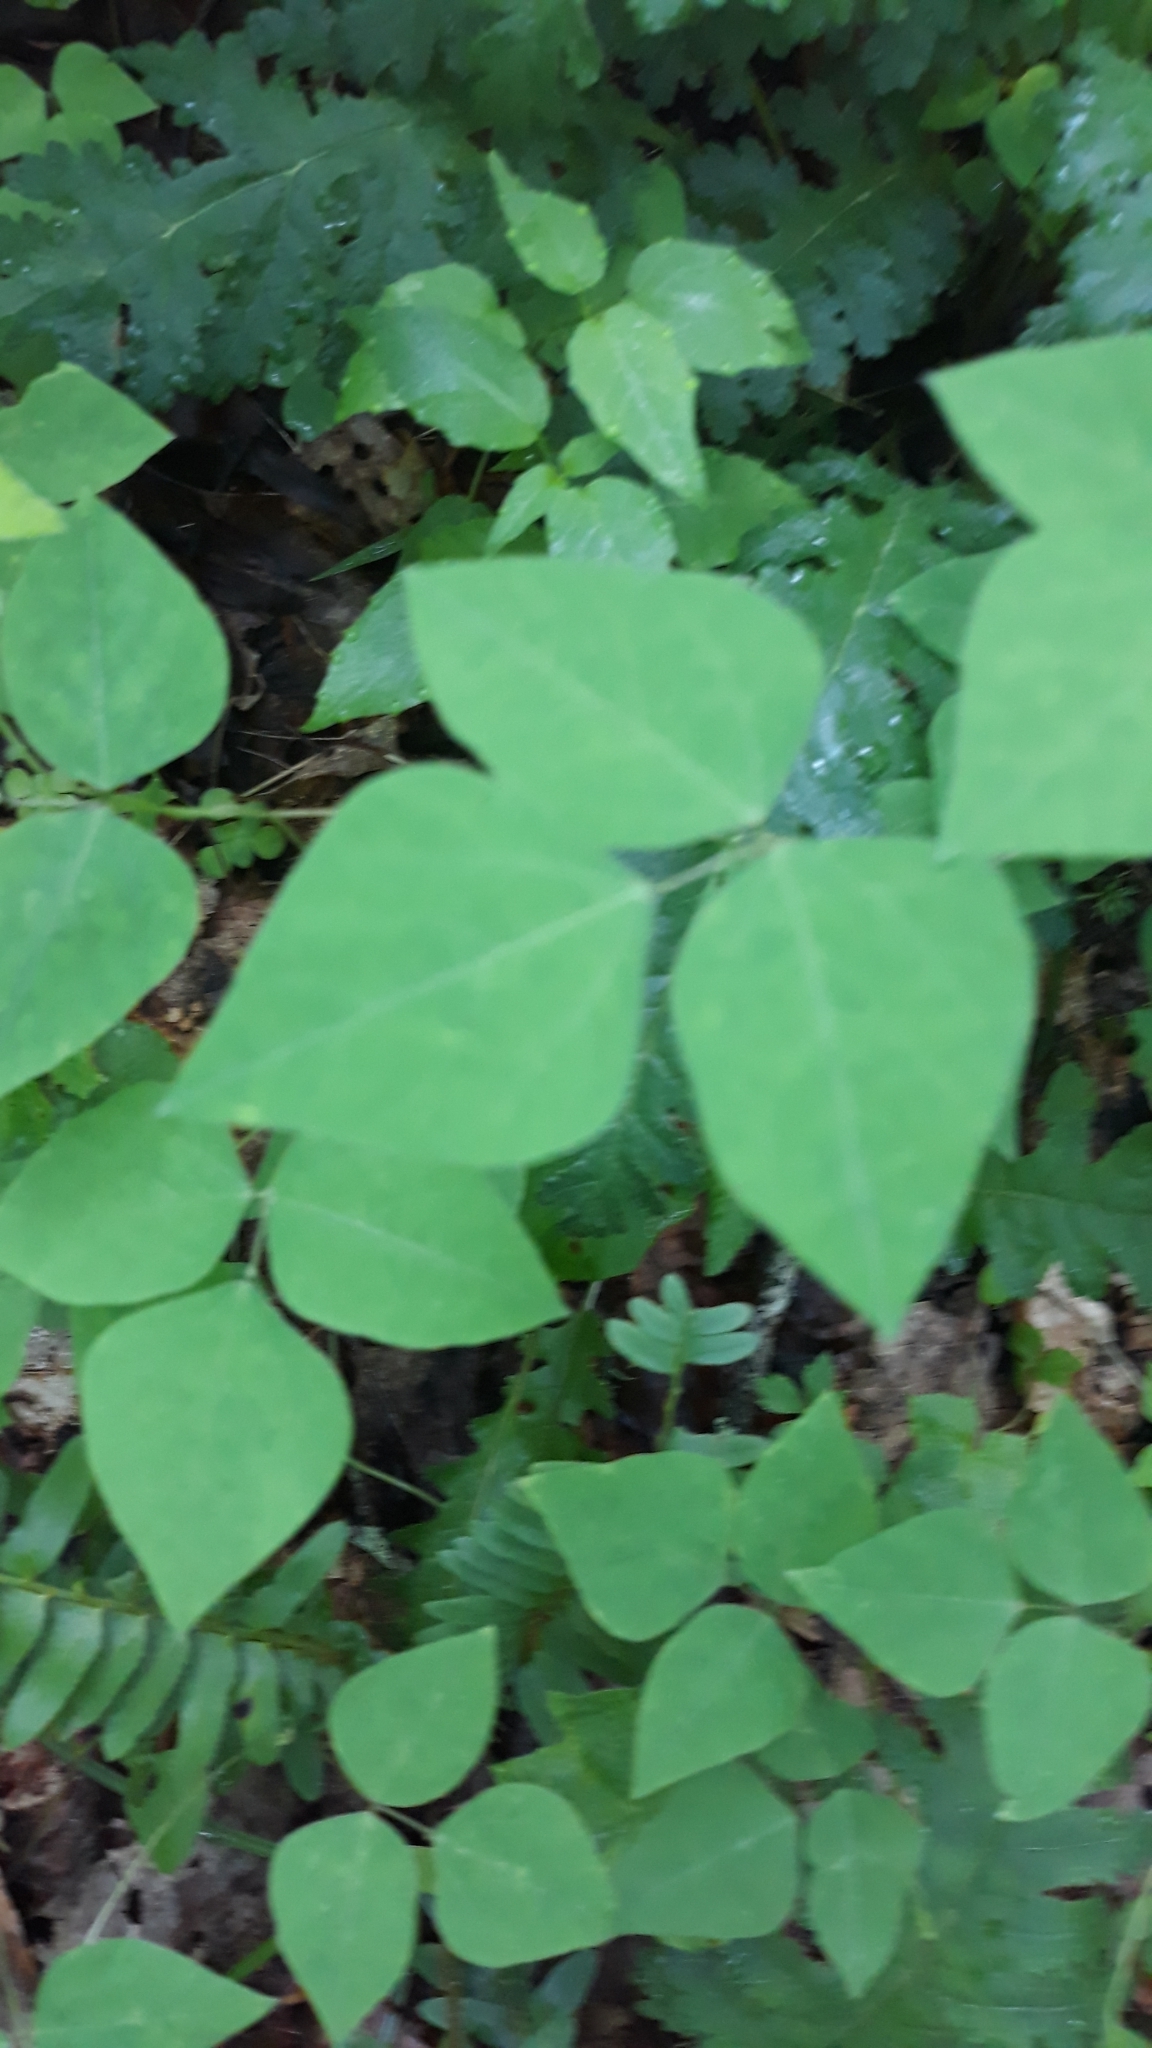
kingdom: Plantae
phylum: Tracheophyta
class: Magnoliopsida
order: Fabales
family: Fabaceae
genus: Amphicarpaea
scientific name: Amphicarpaea bracteata
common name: American hog peanut
